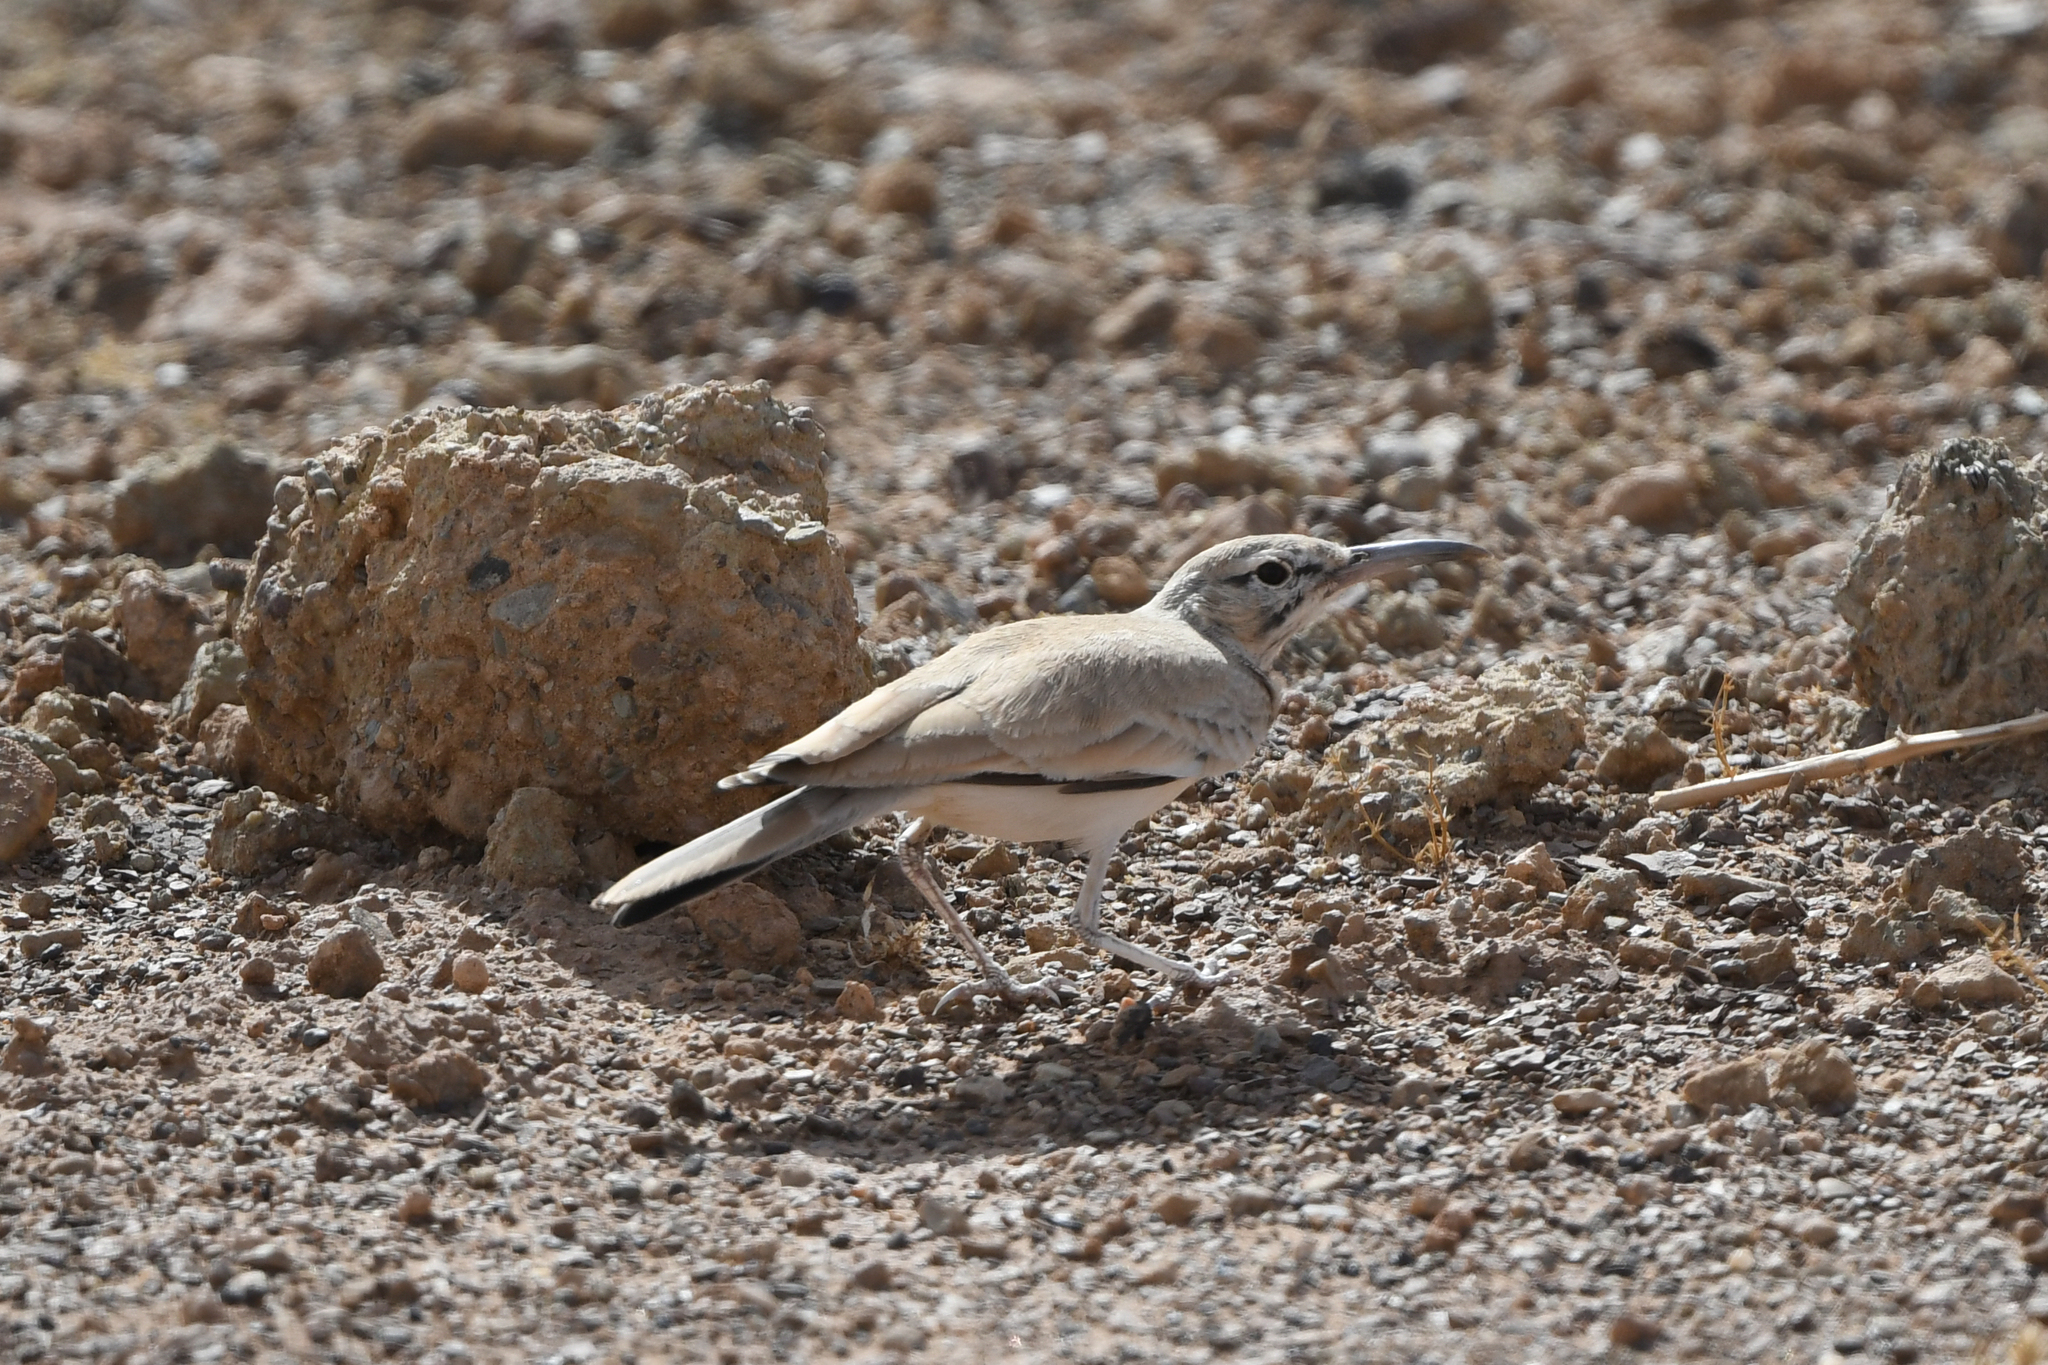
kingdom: Animalia
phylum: Chordata
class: Aves
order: Passeriformes
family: Alaudidae
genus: Alaemon
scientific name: Alaemon alaudipes
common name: Greater hoopoe-lark
